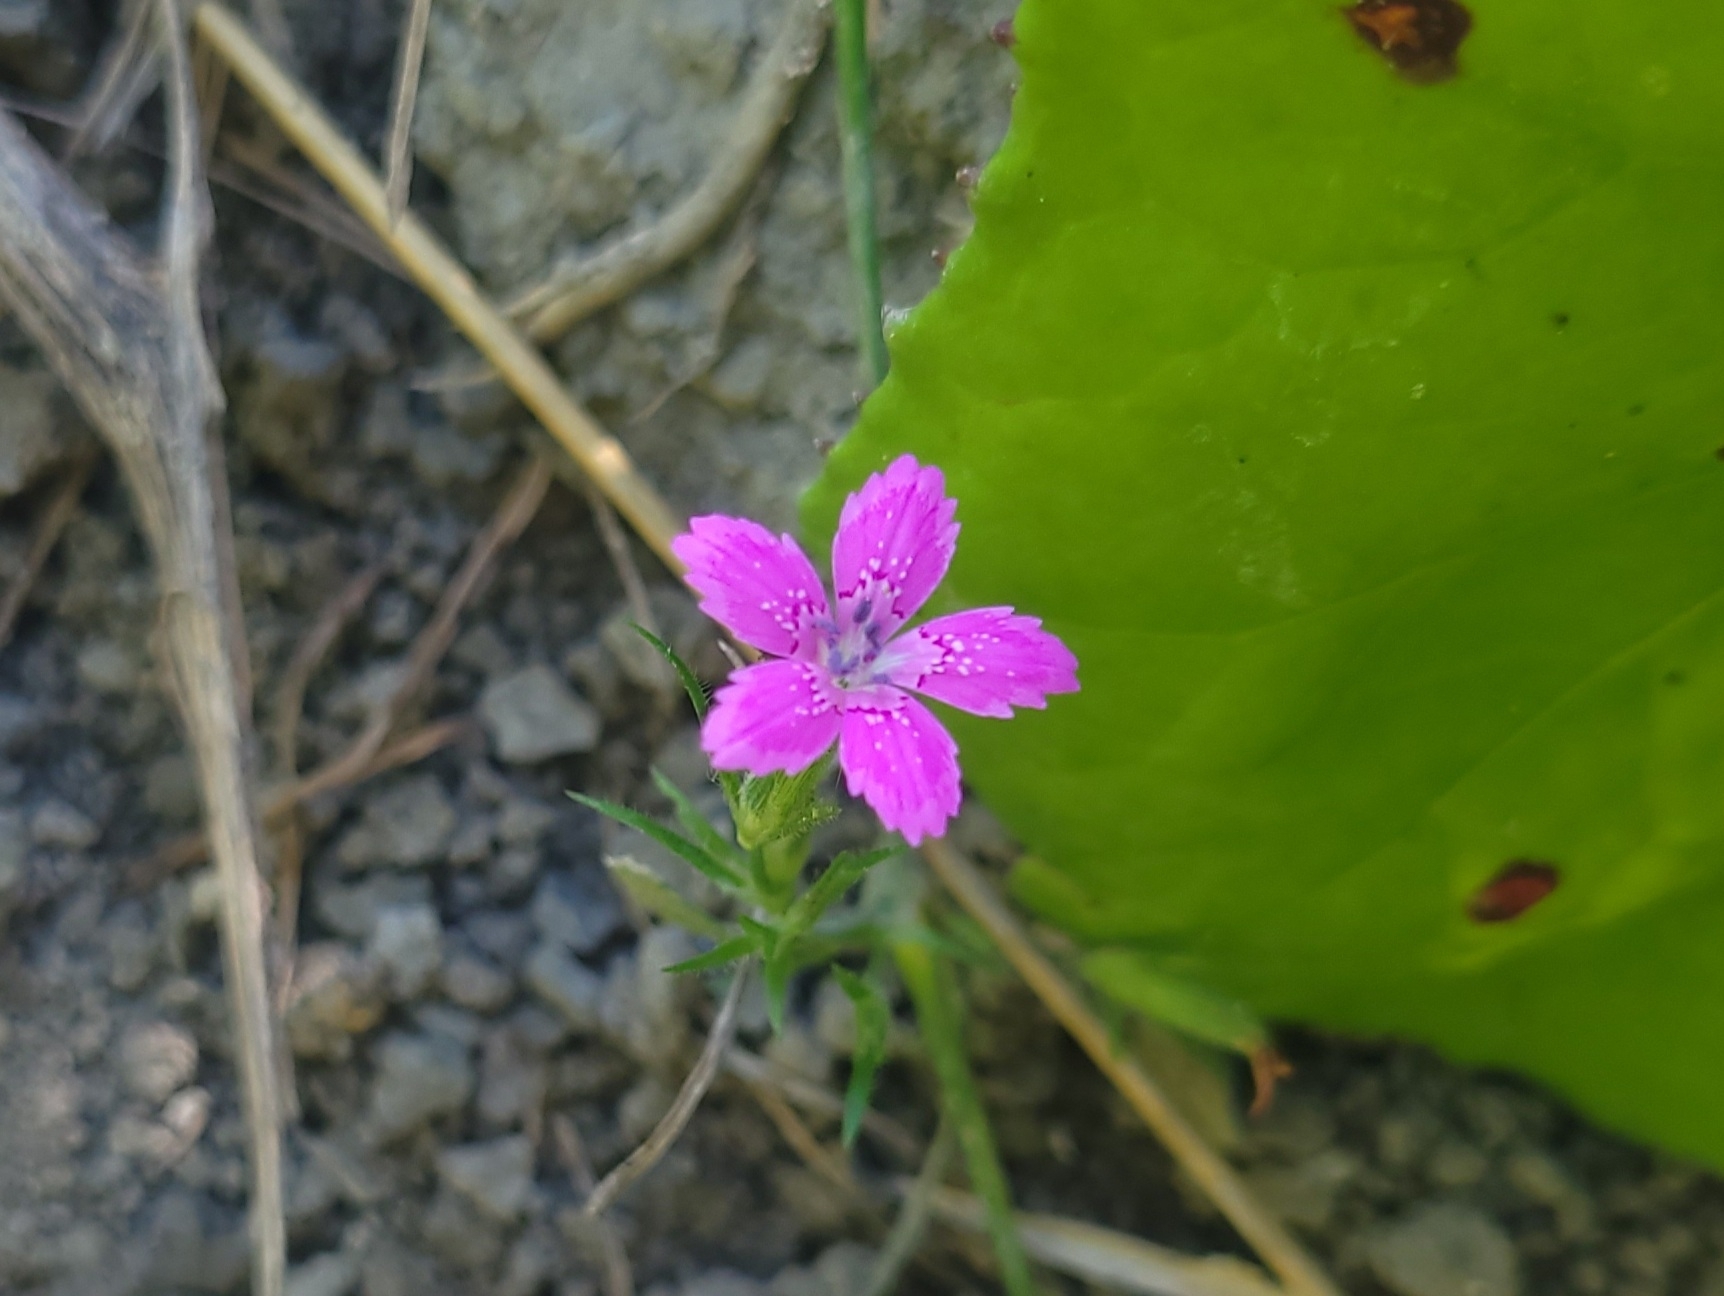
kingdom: Plantae
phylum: Tracheophyta
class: Magnoliopsida
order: Caryophyllales
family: Caryophyllaceae
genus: Dianthus
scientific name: Dianthus armeria
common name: Deptford pink
